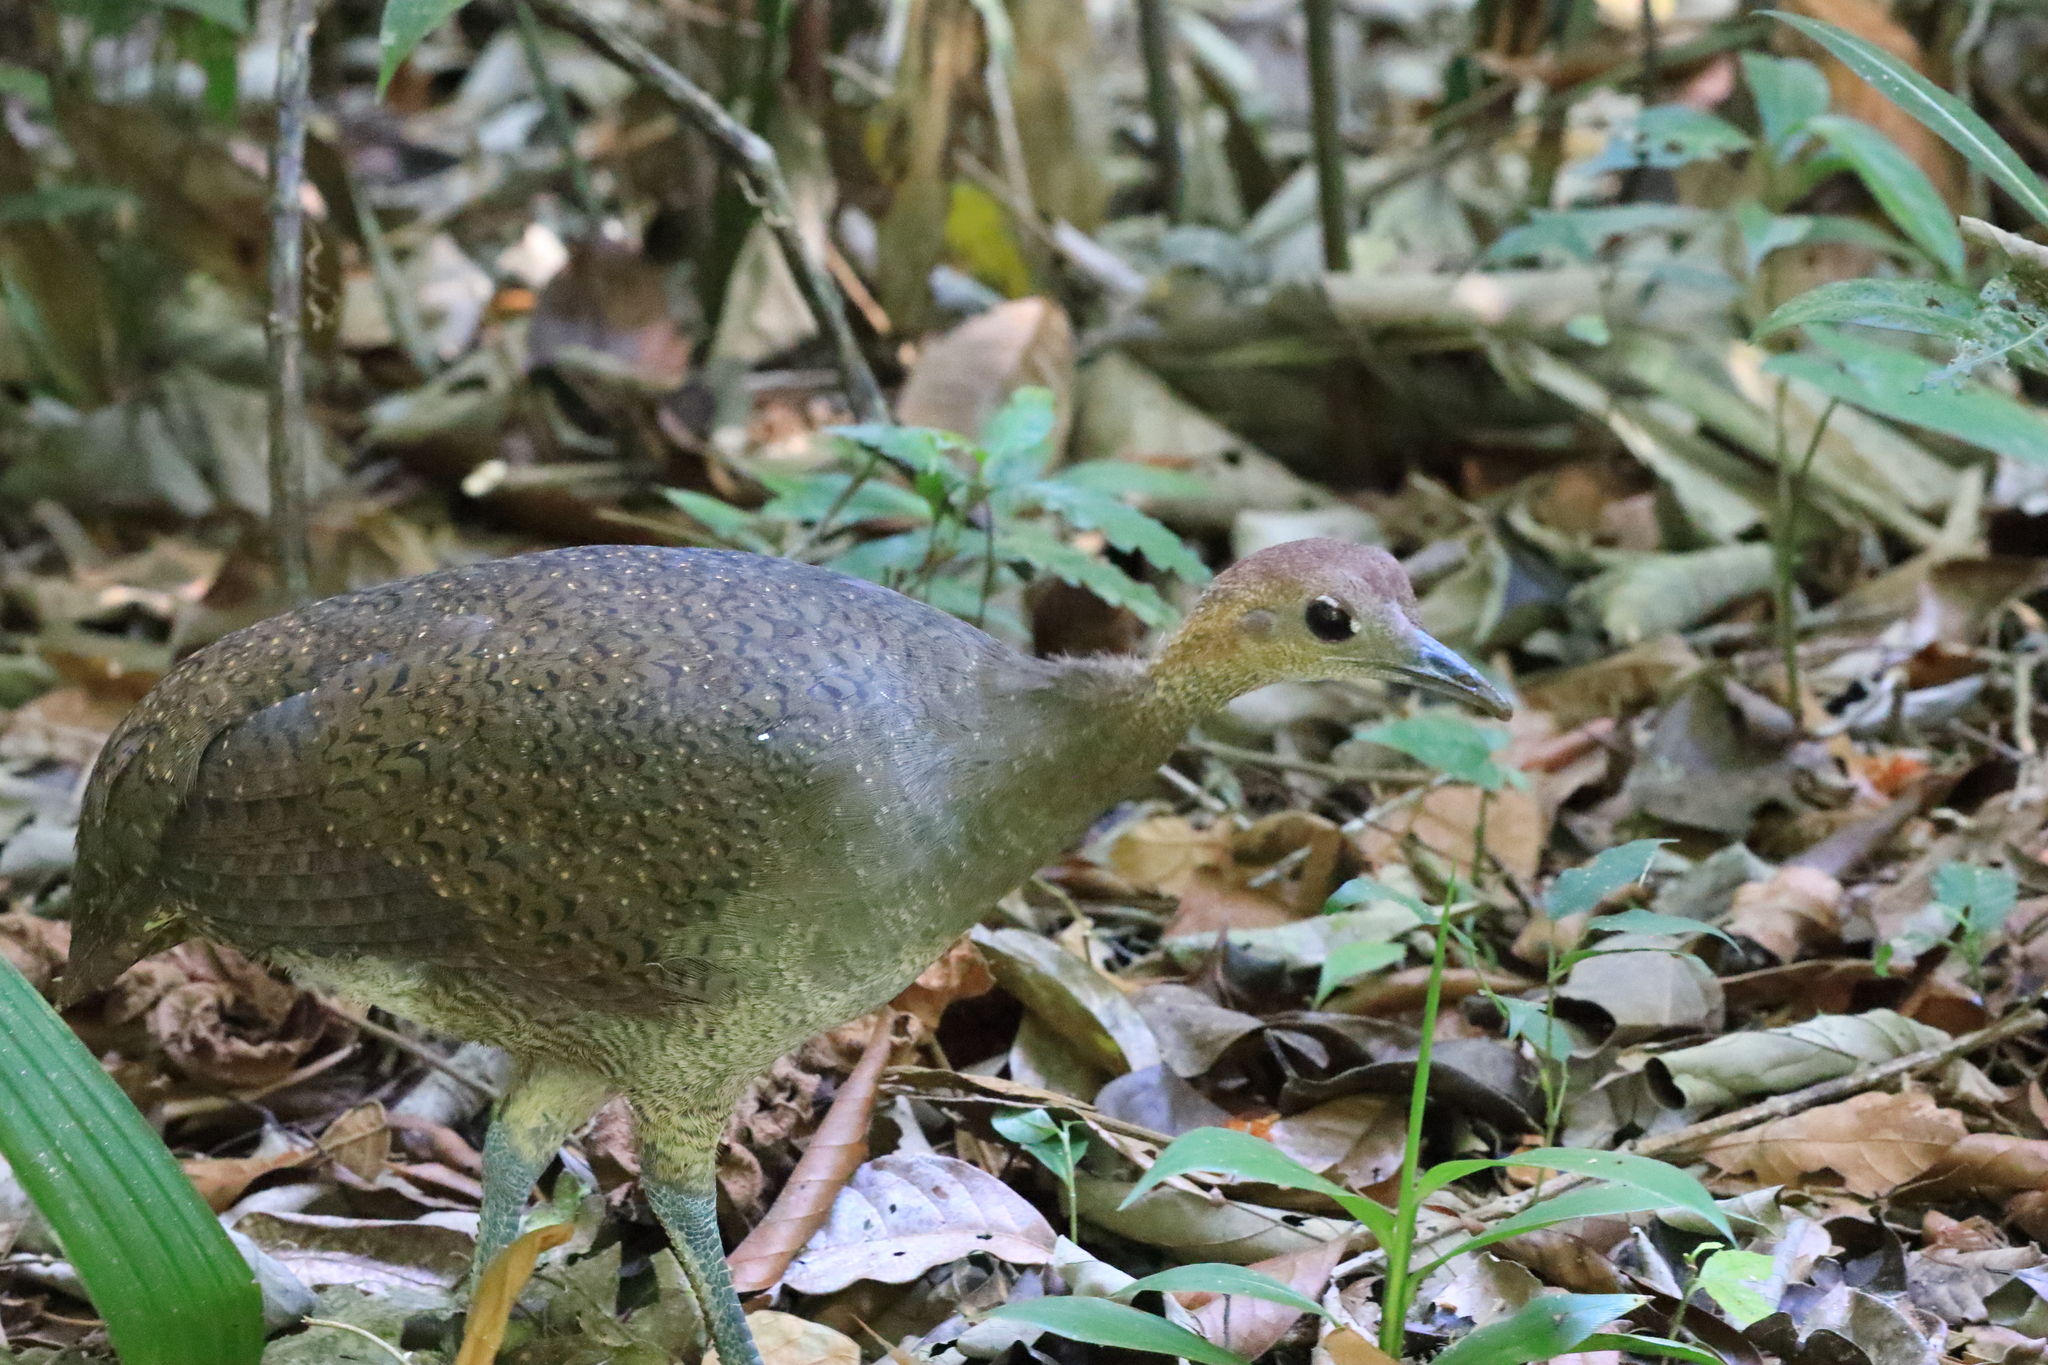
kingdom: Animalia
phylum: Chordata
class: Aves
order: Tinamiformes
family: Tinamidae
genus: Tinamus
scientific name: Tinamus major
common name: Great tinamou
